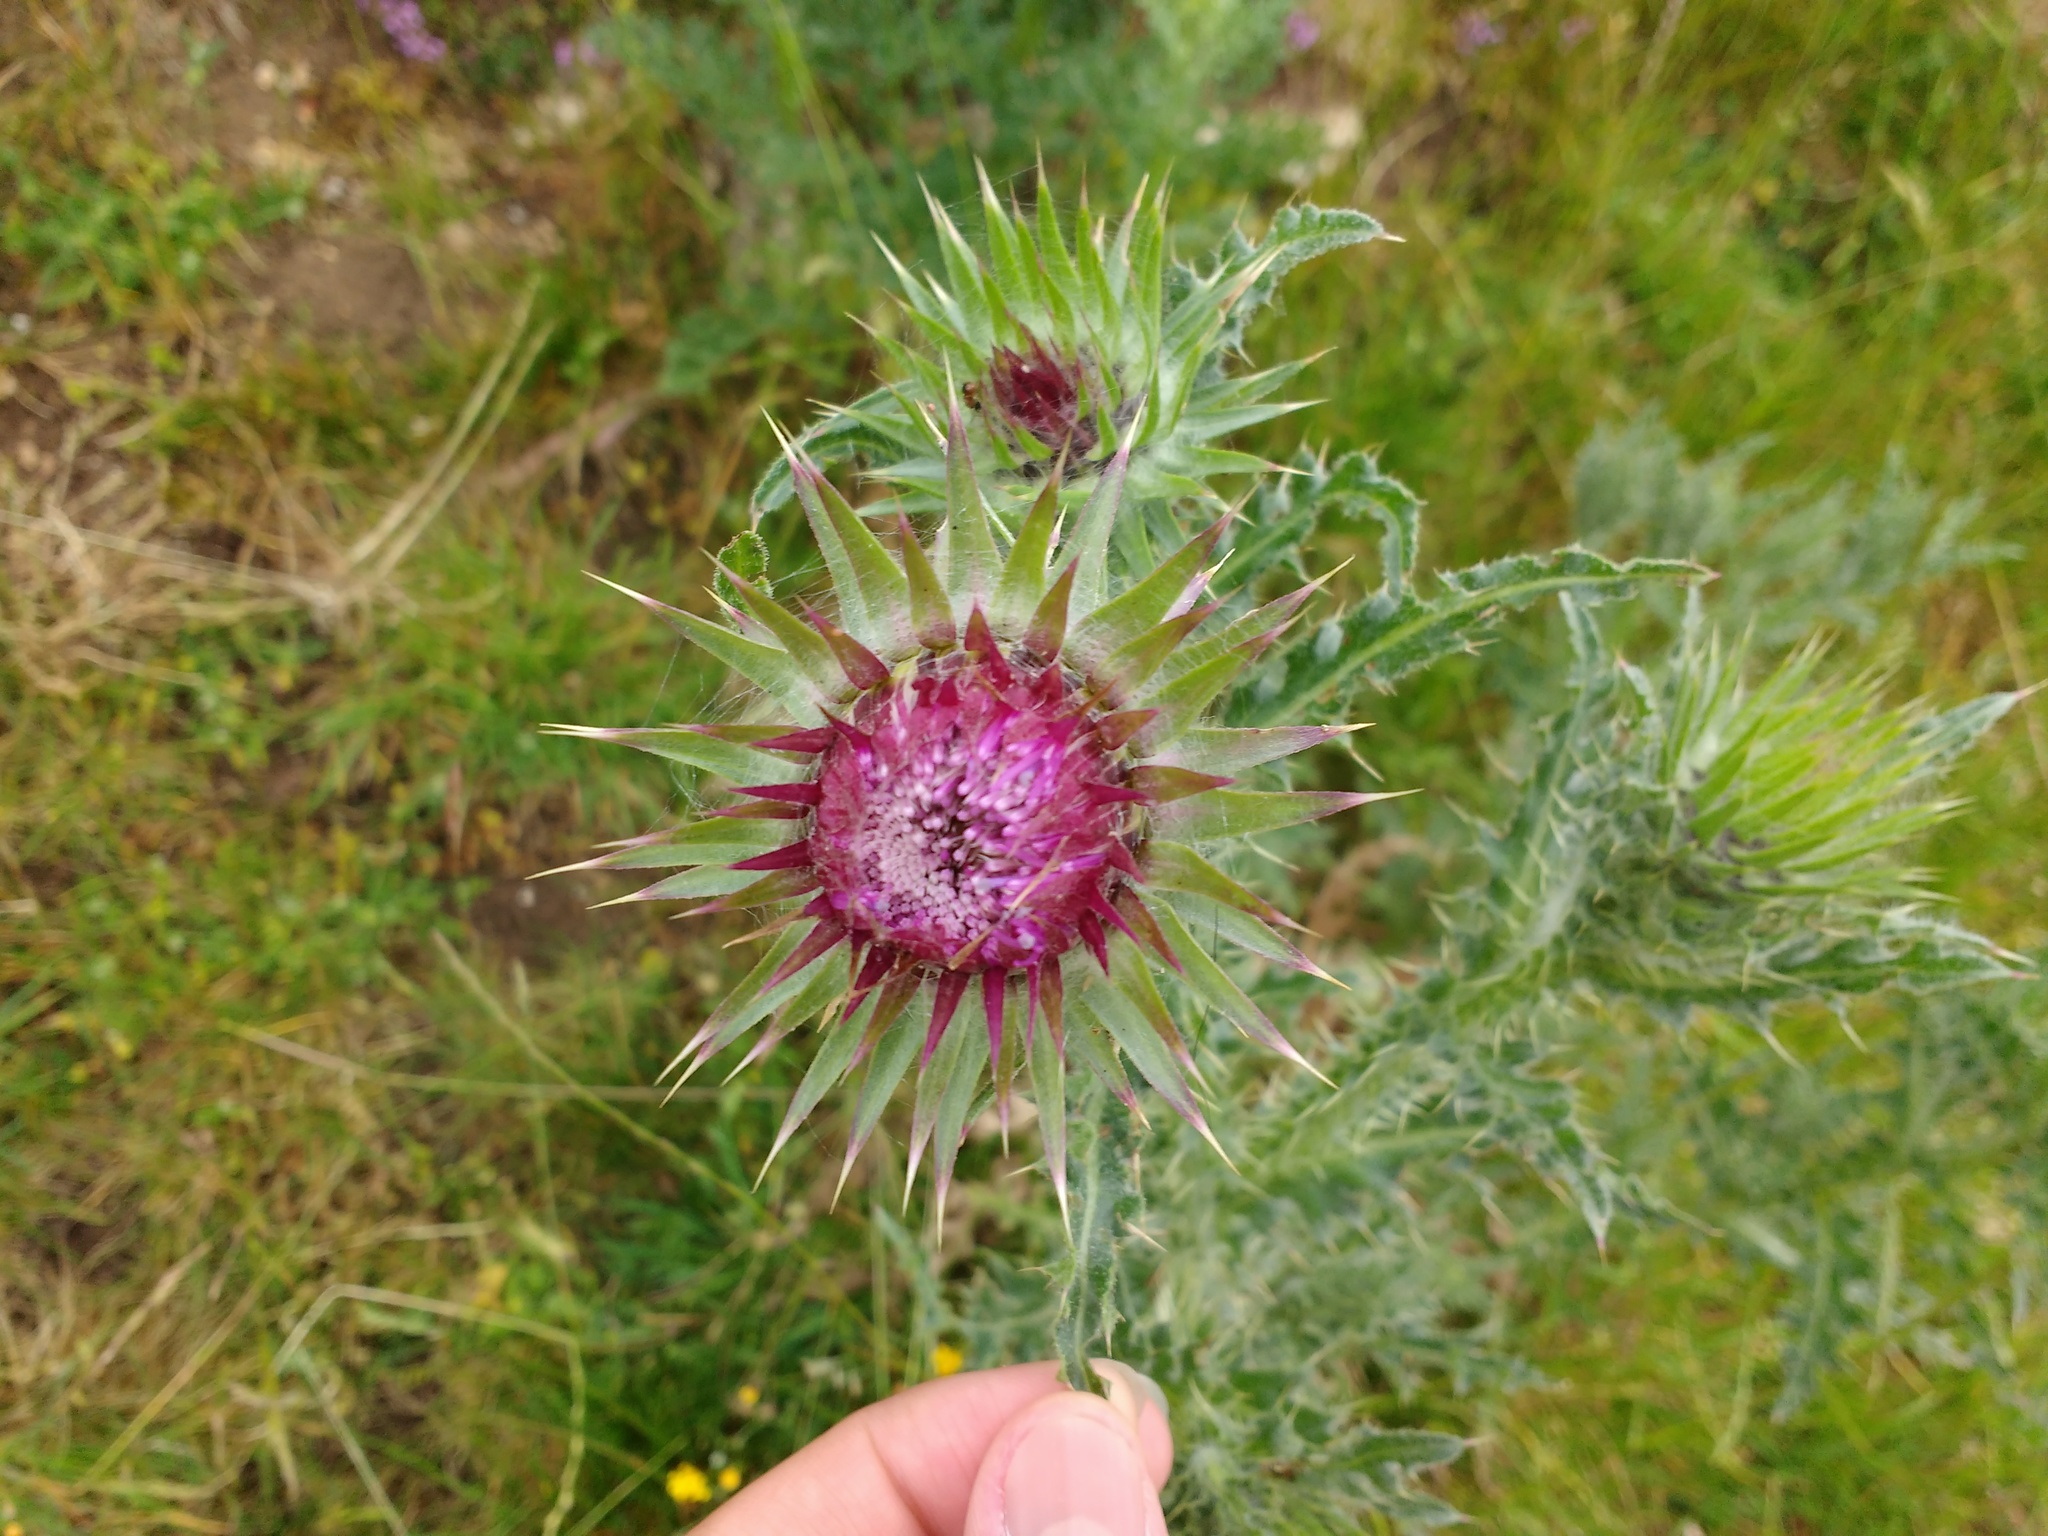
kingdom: Plantae
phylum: Tracheophyta
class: Magnoliopsida
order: Asterales
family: Asteraceae
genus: Carduus
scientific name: Carduus nutans
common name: Musk thistle
